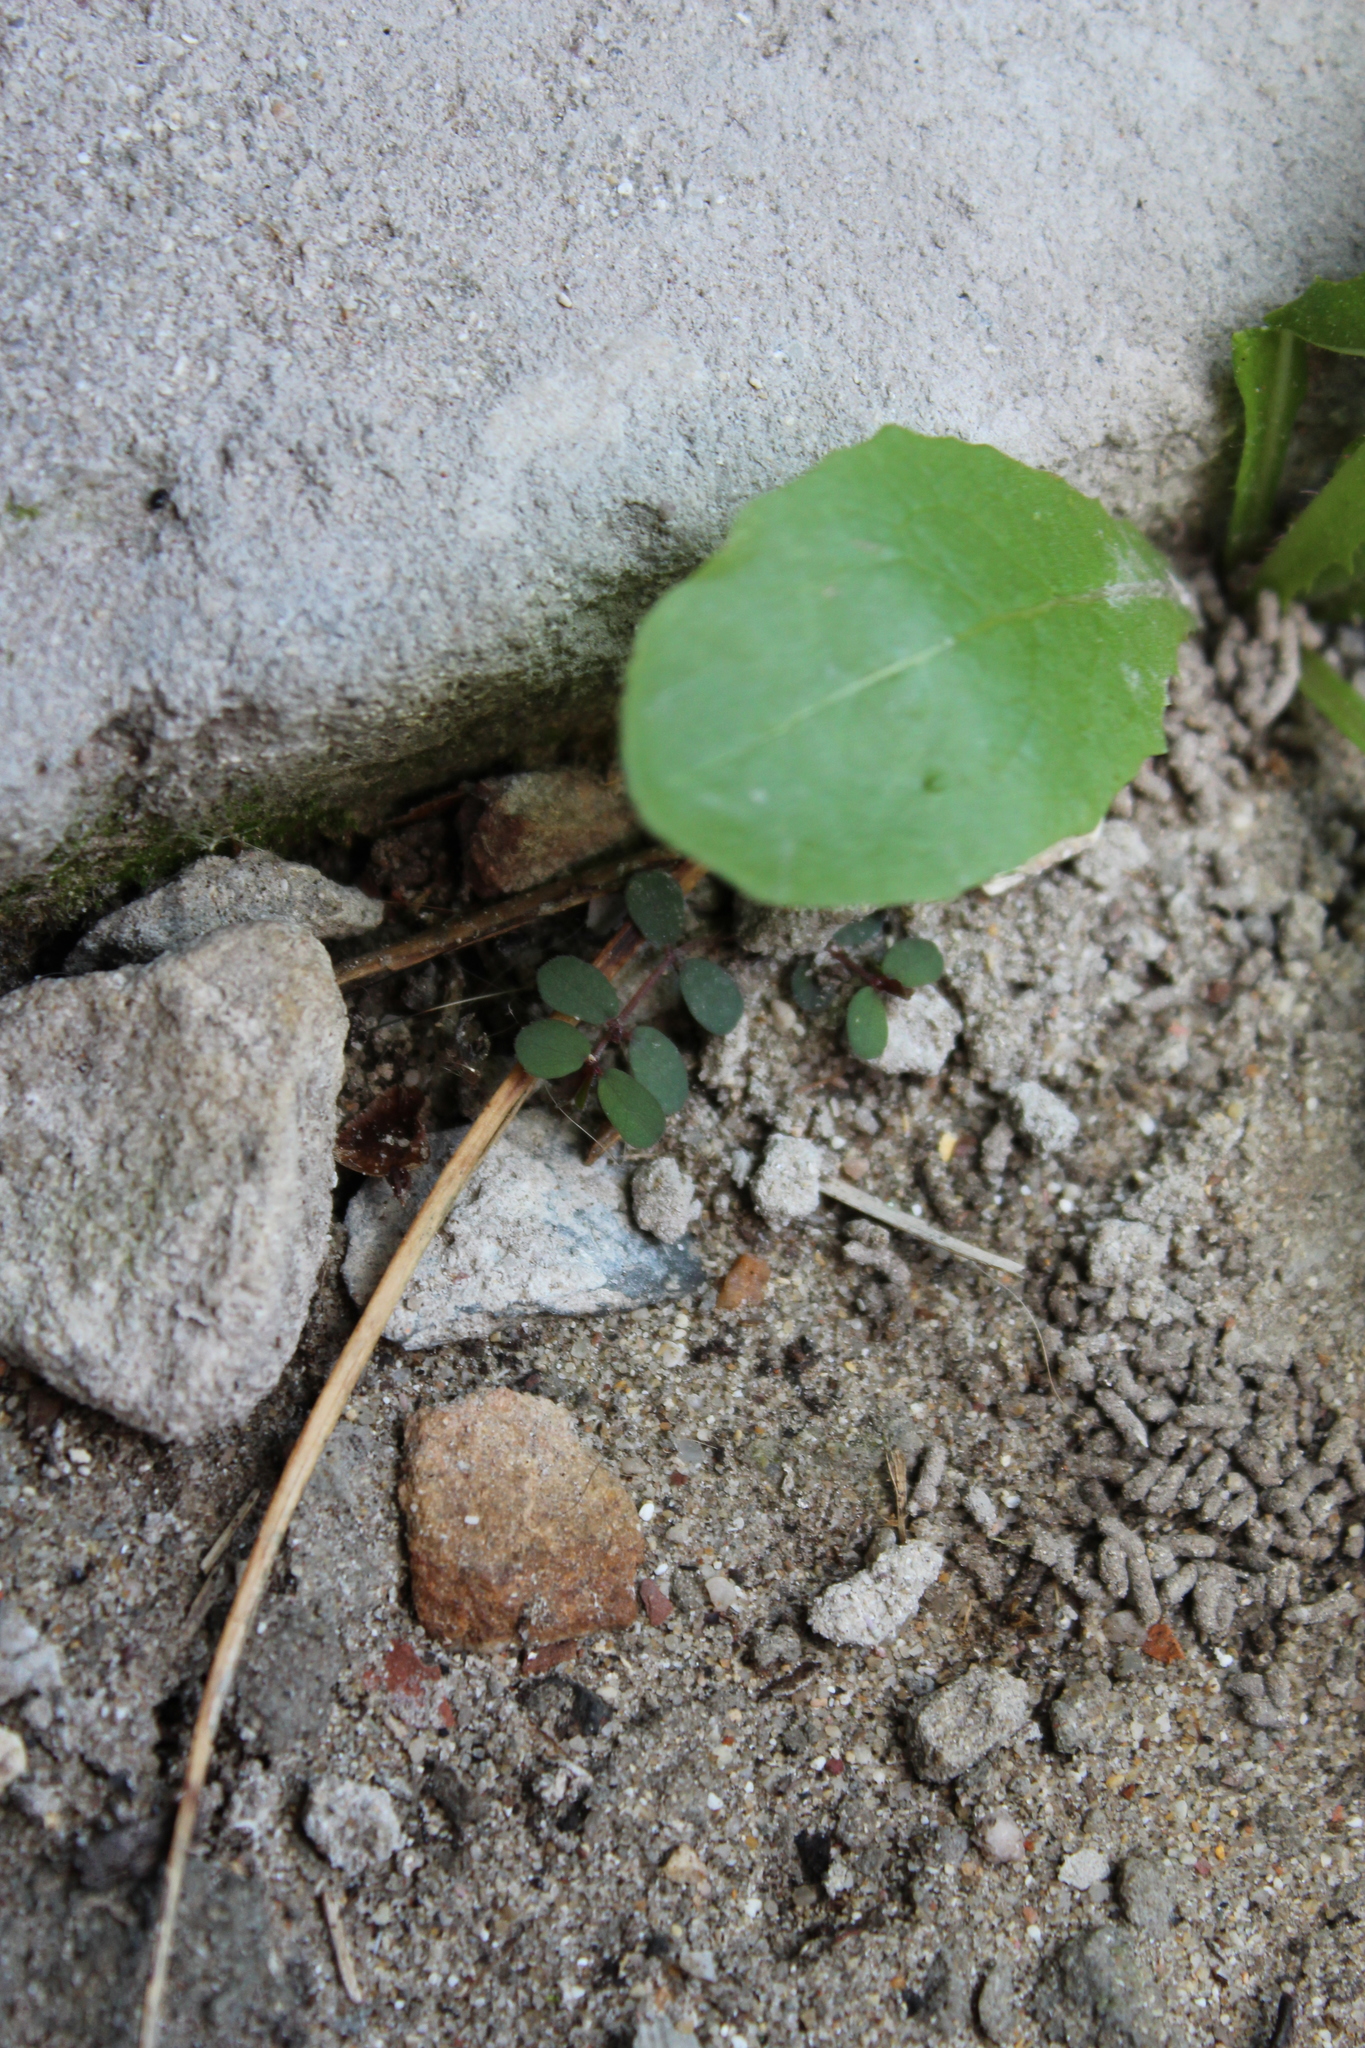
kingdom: Plantae
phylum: Tracheophyta
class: Magnoliopsida
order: Malpighiales
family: Euphorbiaceae
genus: Euphorbia
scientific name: Euphorbia prostrata
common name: Prostrate sandmat
